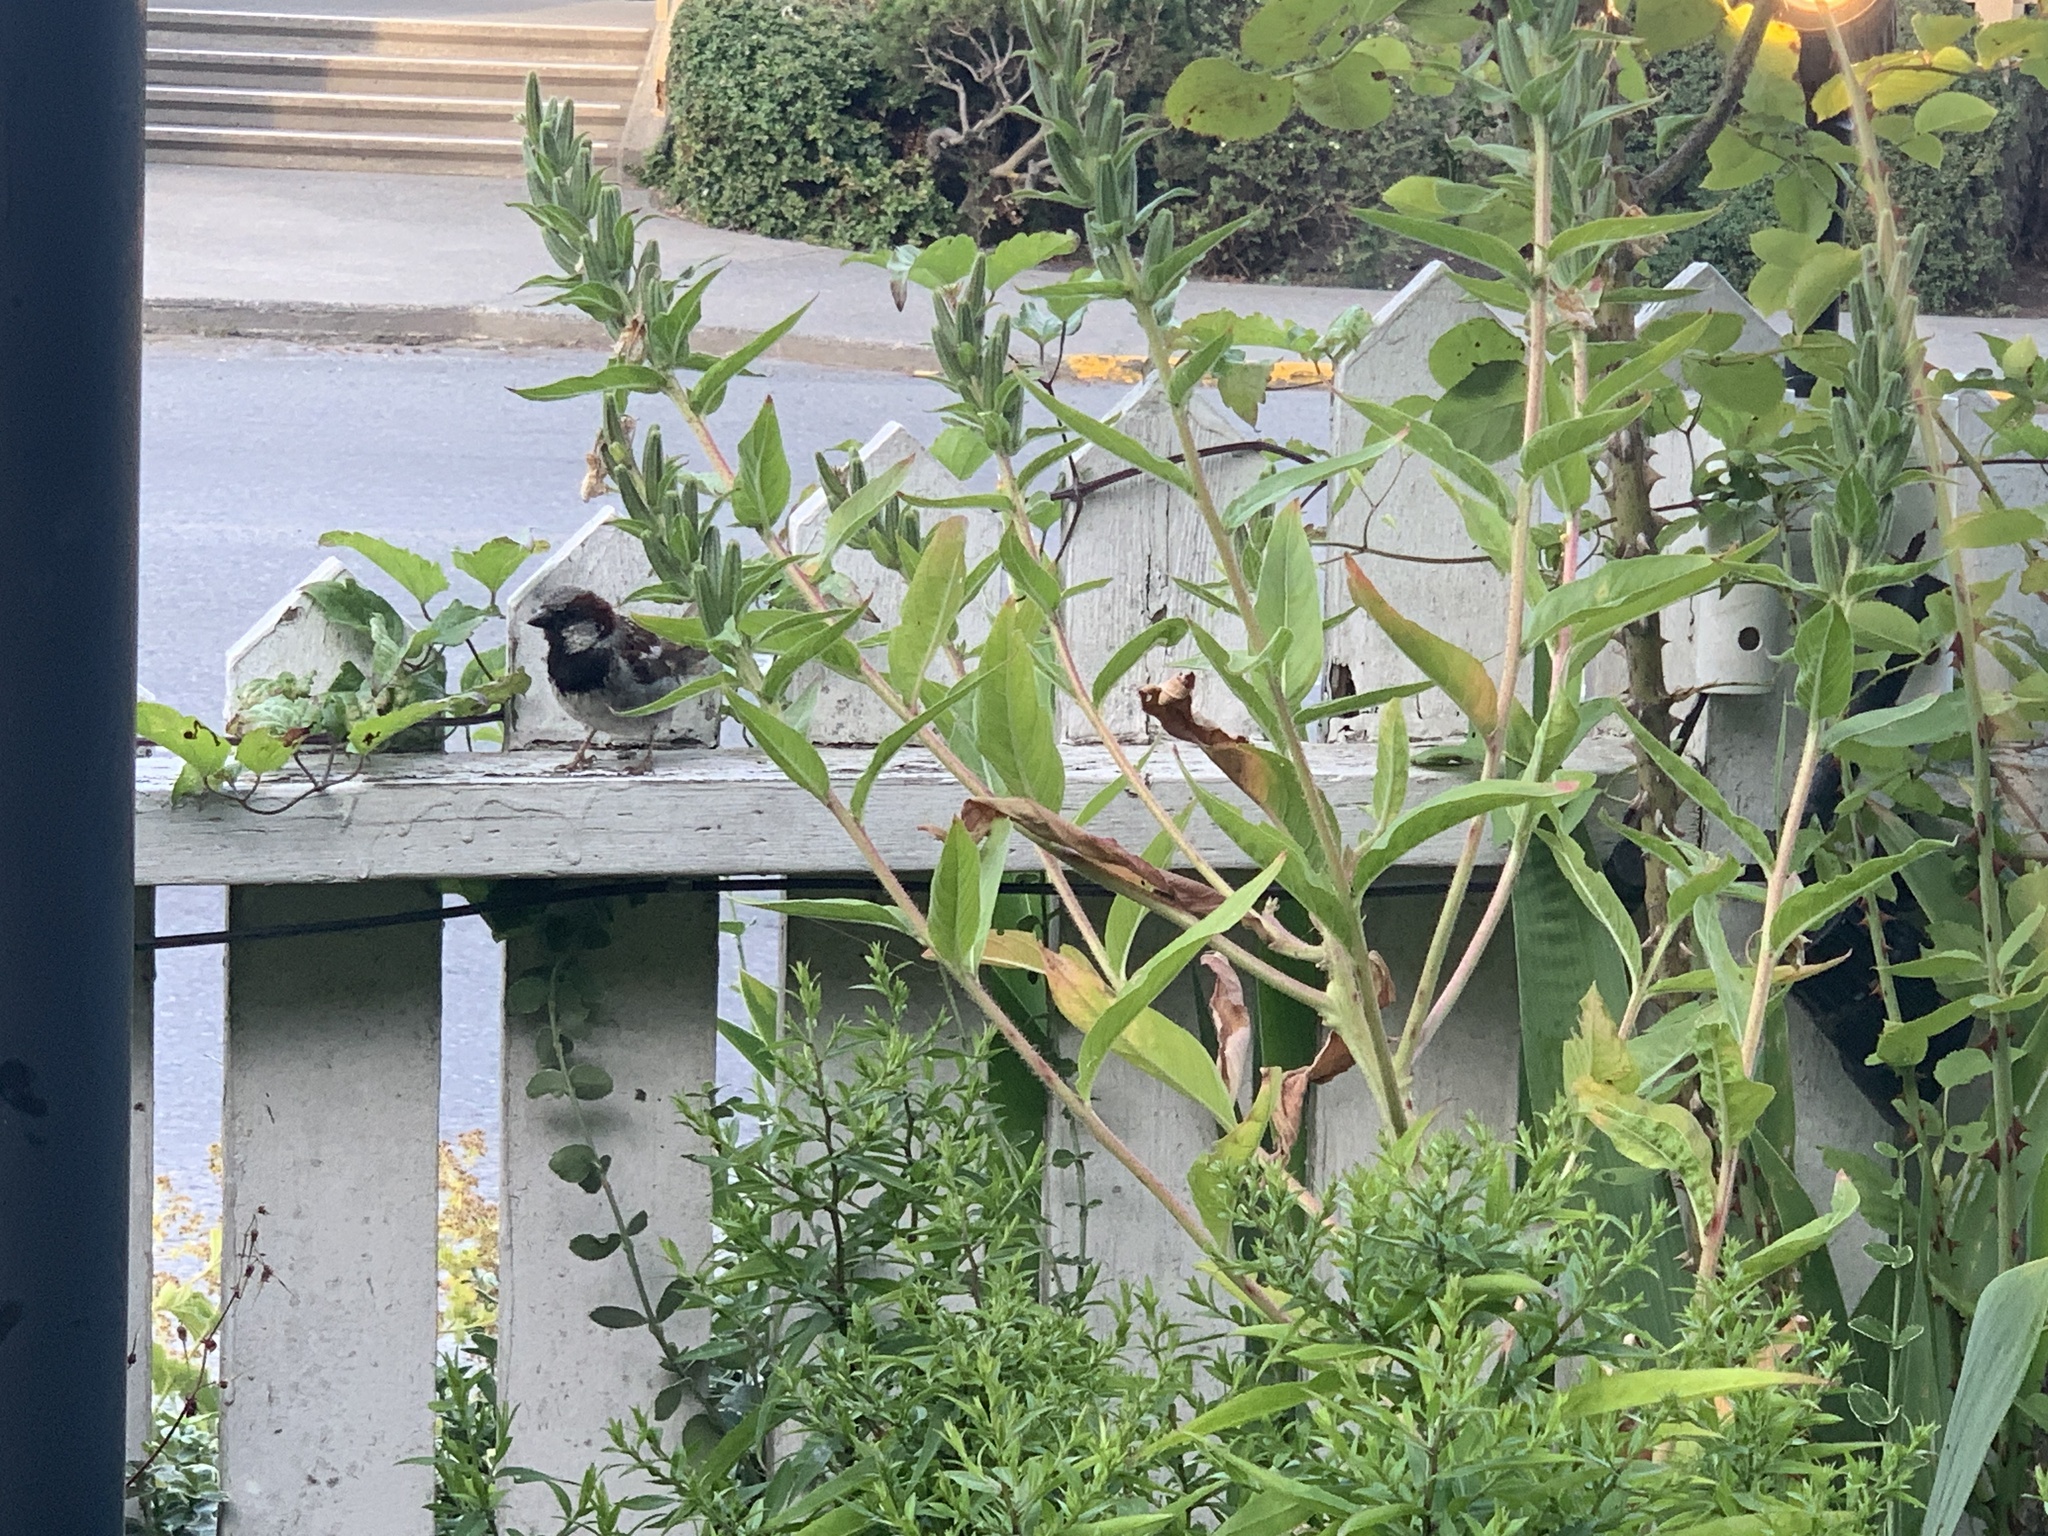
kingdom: Animalia
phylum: Chordata
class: Aves
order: Passeriformes
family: Passeridae
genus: Passer
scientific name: Passer domesticus
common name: House sparrow
